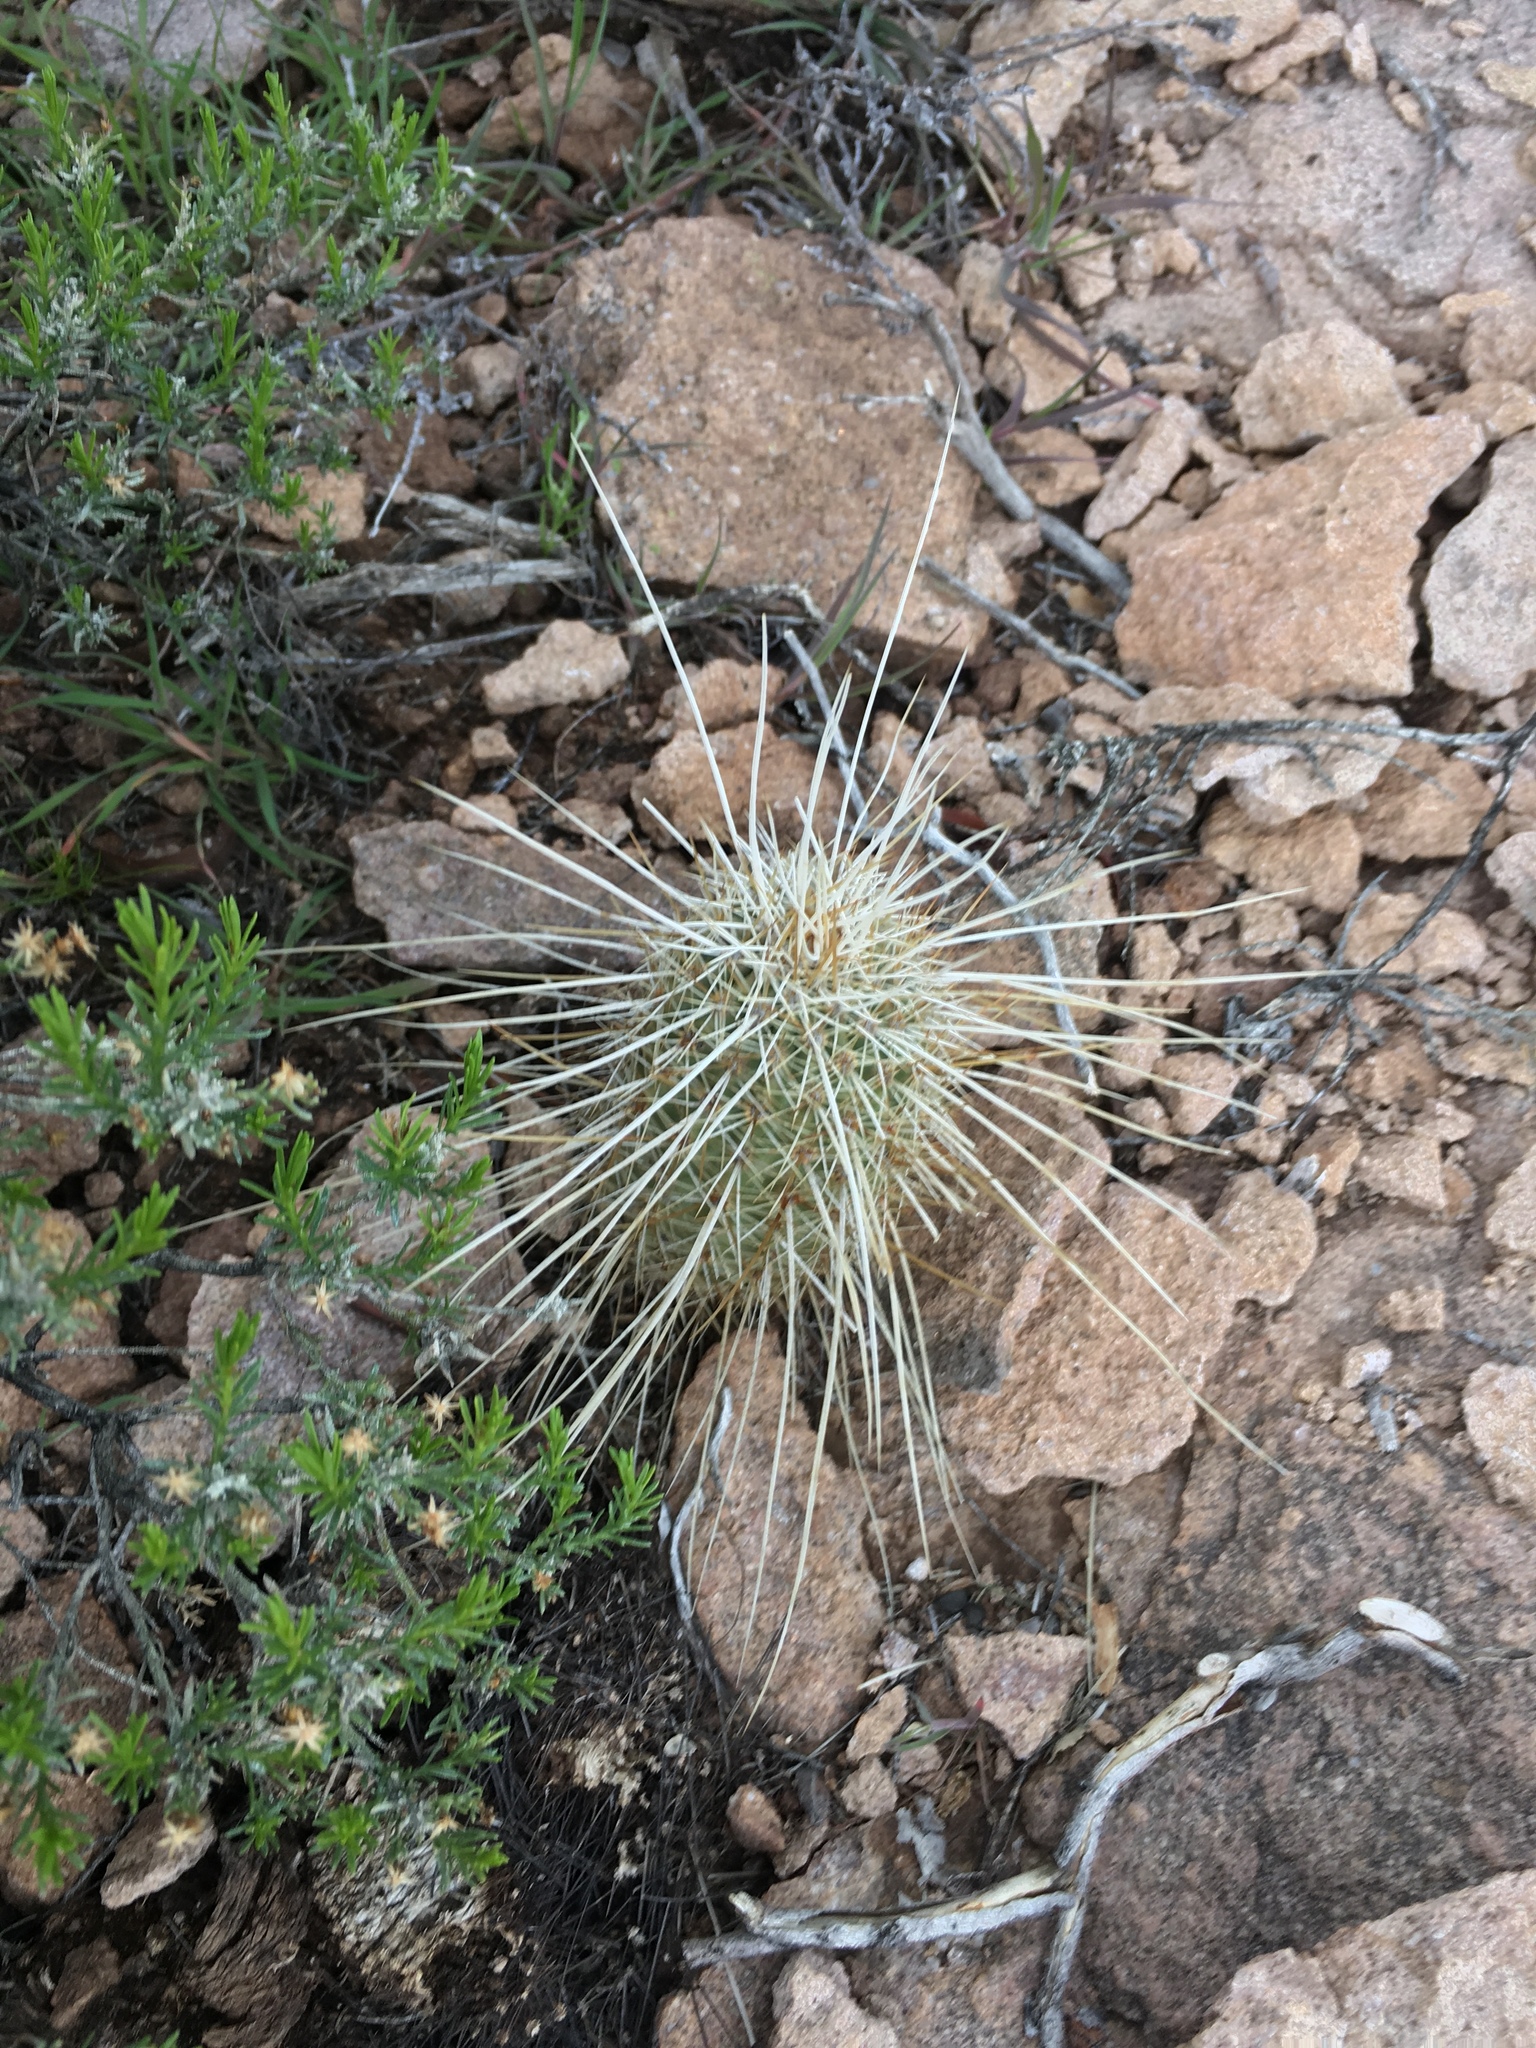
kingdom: Plantae
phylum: Tracheophyta
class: Magnoliopsida
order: Caryophyllales
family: Cactaceae
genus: Echinocereus
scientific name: Echinocereus fasciculatus
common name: Bundle hedgehog
